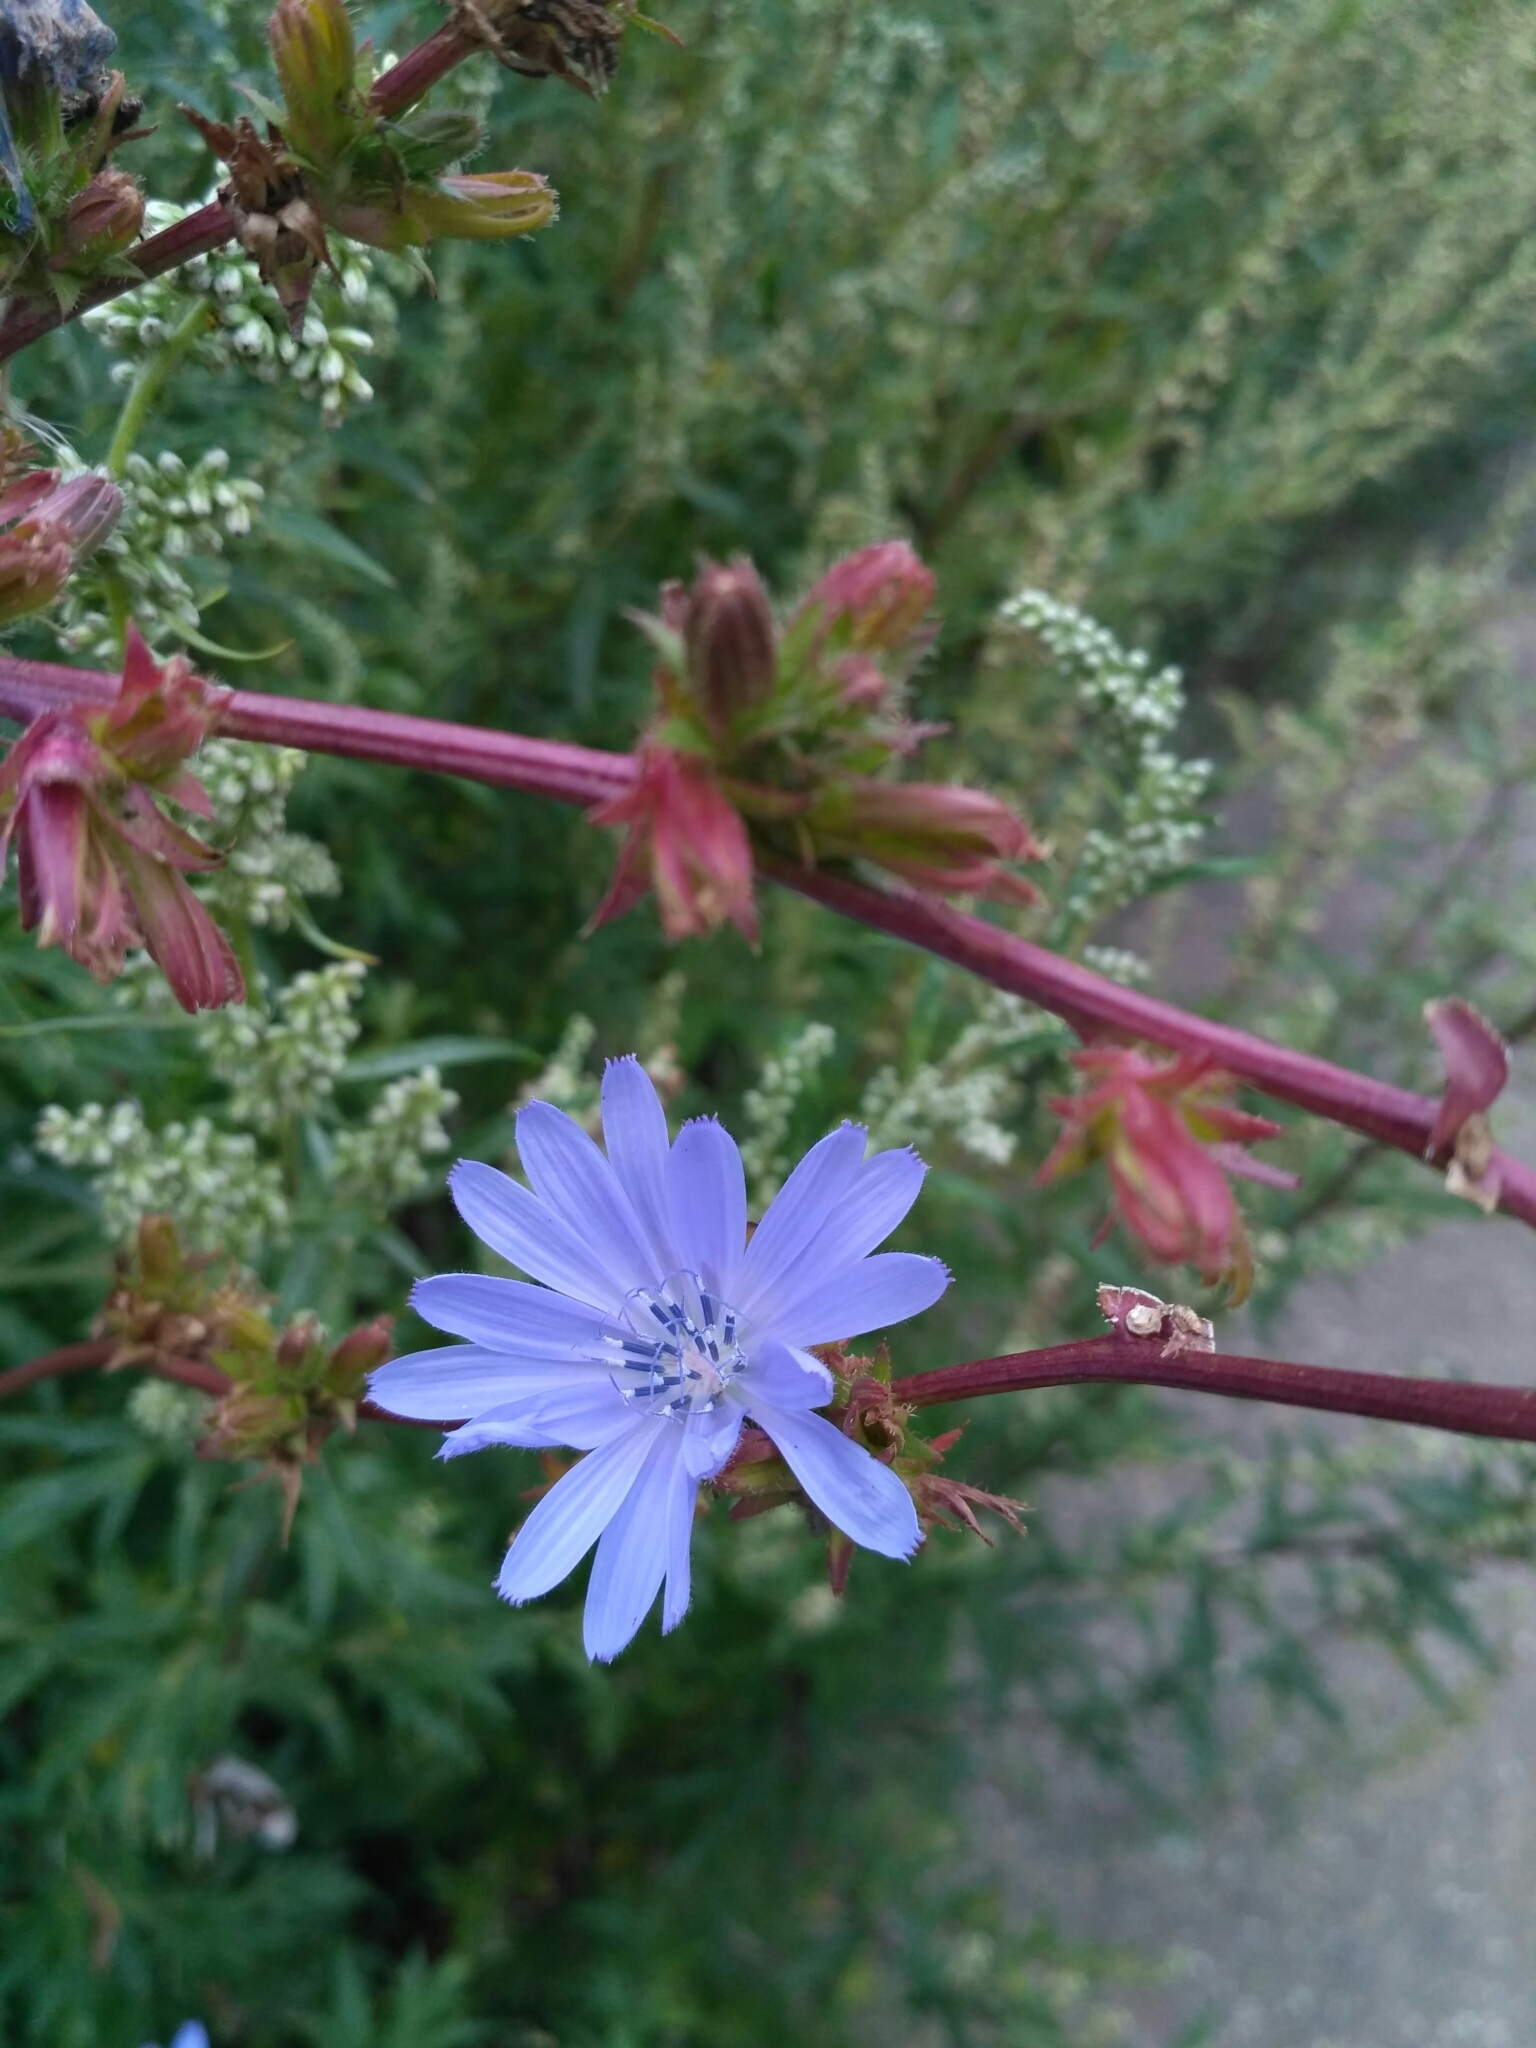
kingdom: Plantae
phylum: Tracheophyta
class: Magnoliopsida
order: Asterales
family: Asteraceae
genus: Cichorium
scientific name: Cichorium intybus
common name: Chicory
